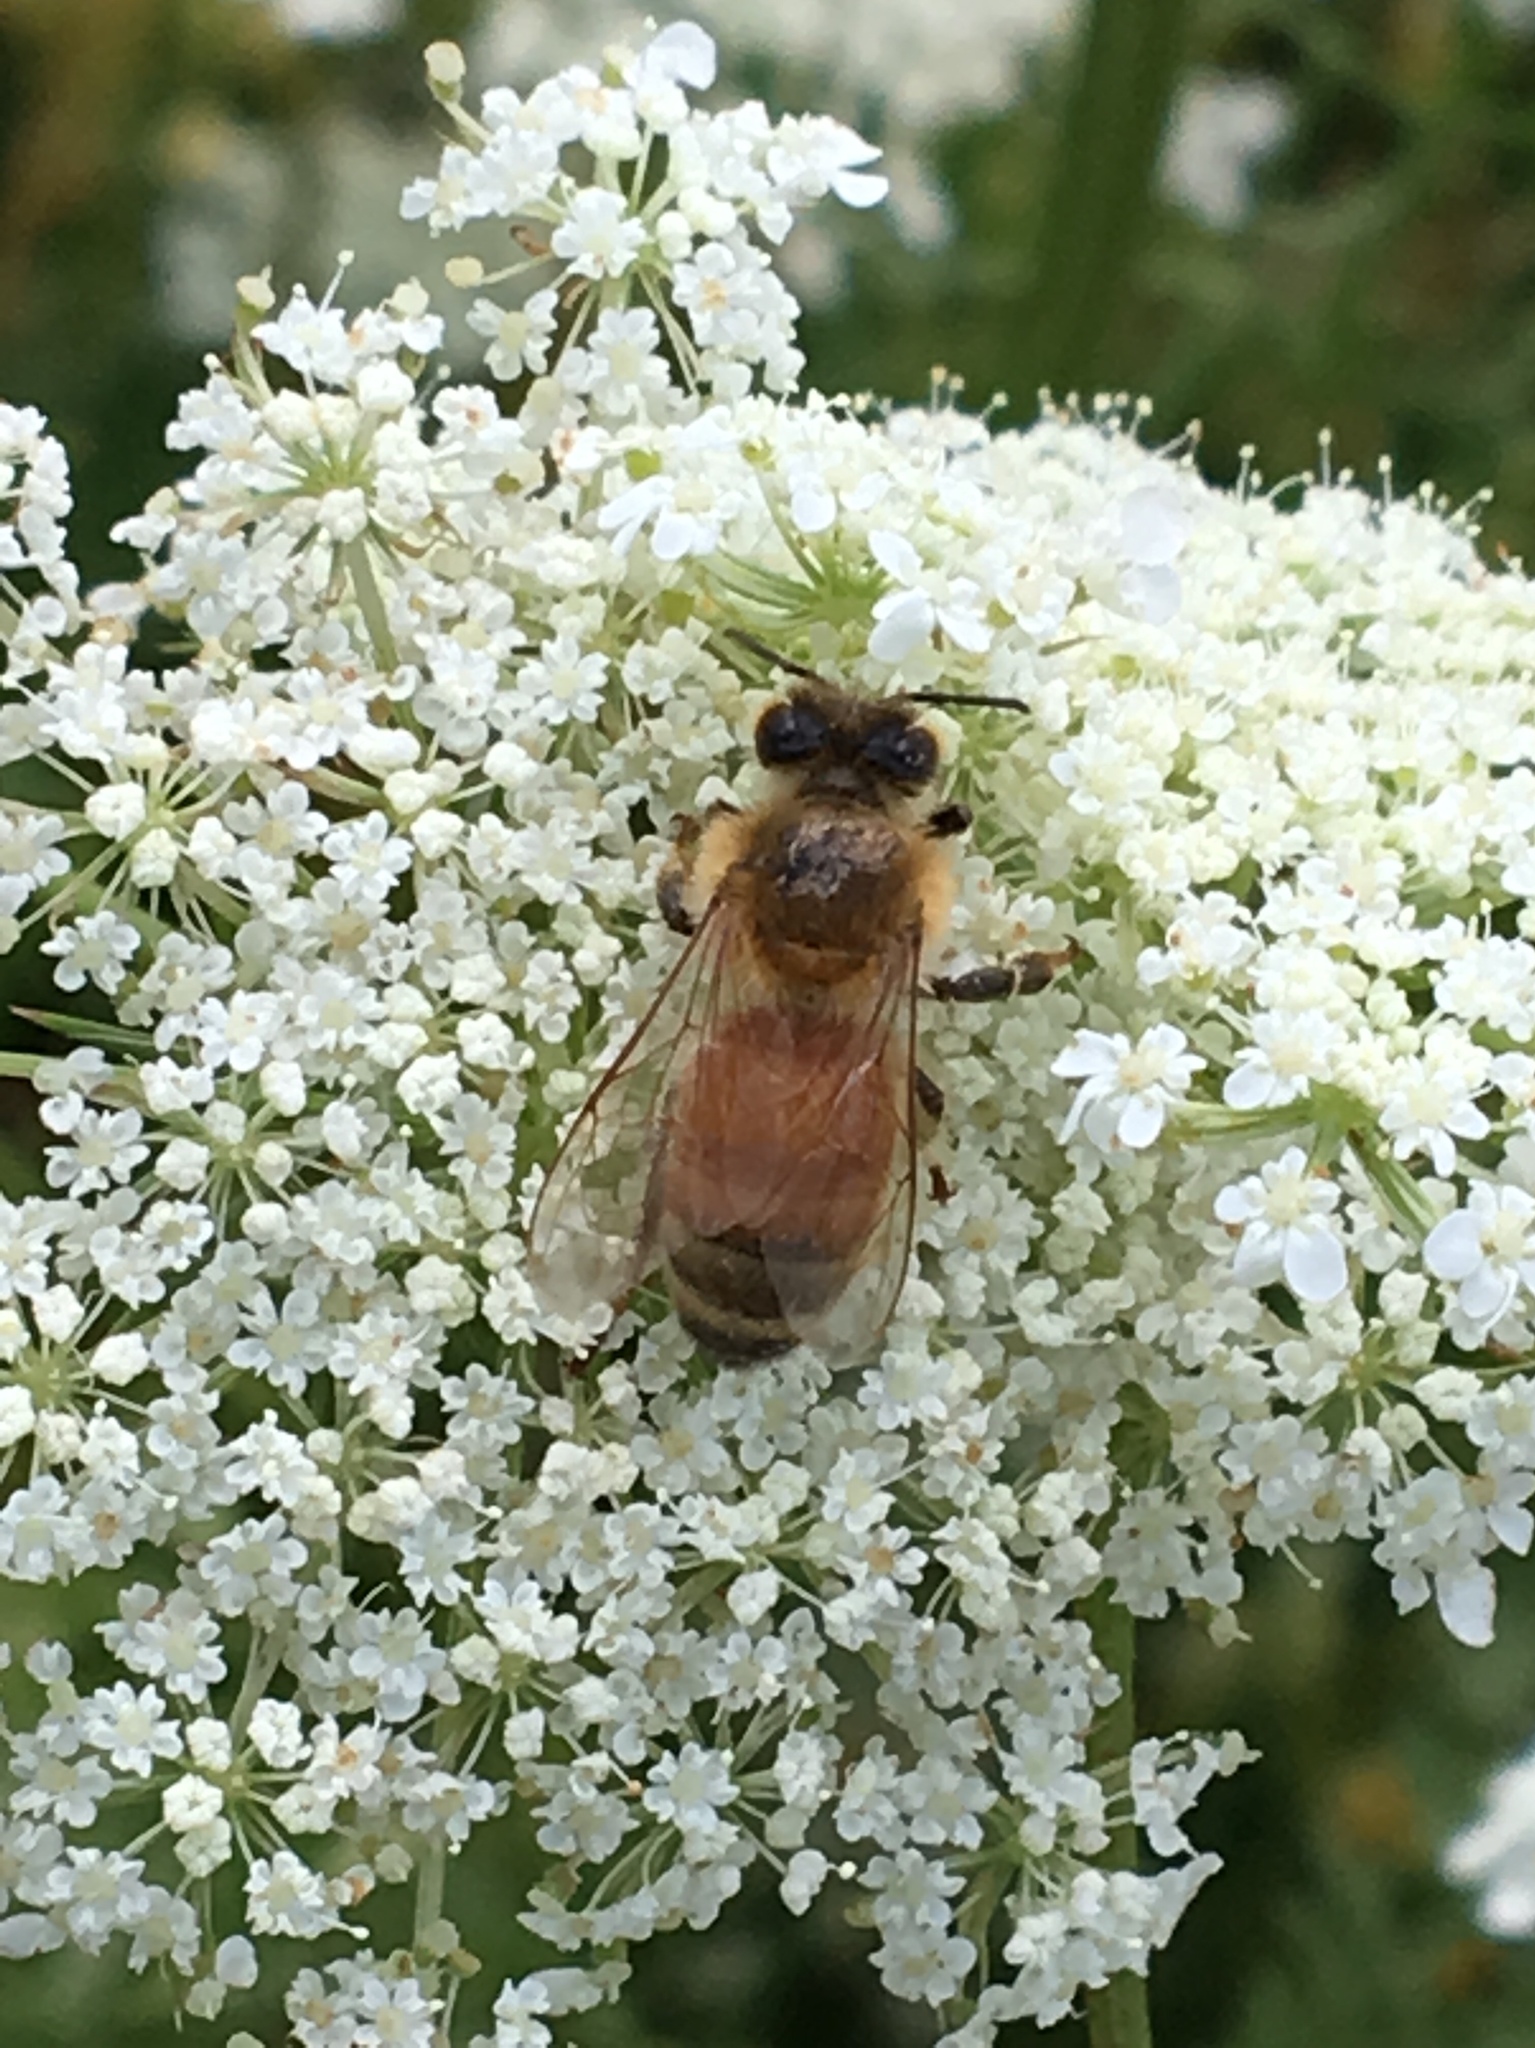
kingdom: Plantae
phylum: Tracheophyta
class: Magnoliopsida
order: Apiales
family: Apiaceae
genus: Daucus
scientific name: Daucus carota
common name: Wild carrot
